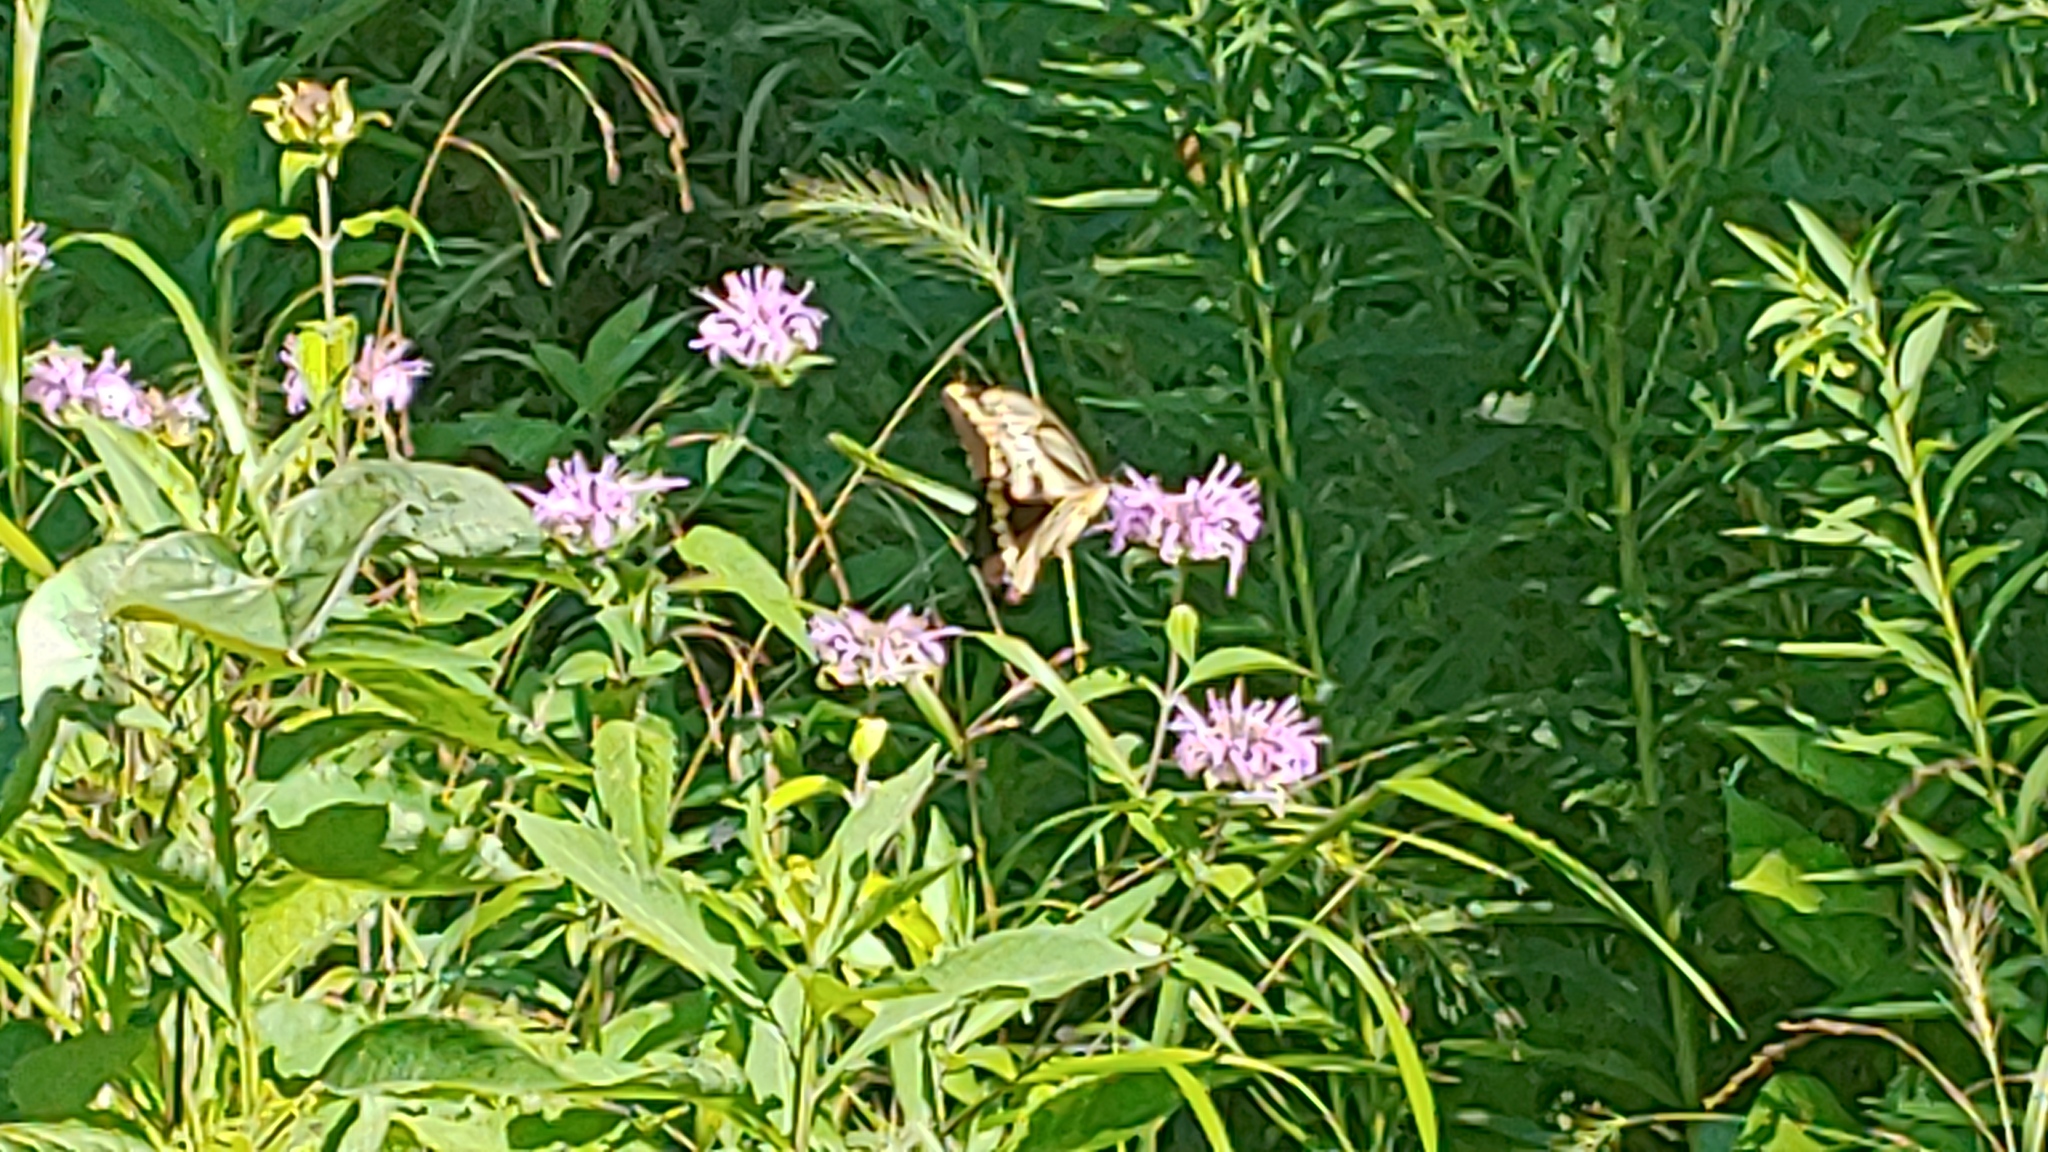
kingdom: Animalia
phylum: Arthropoda
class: Insecta
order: Lepidoptera
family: Papilionidae
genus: Papilio
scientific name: Papilio cresphontes
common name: Giant swallowtail
